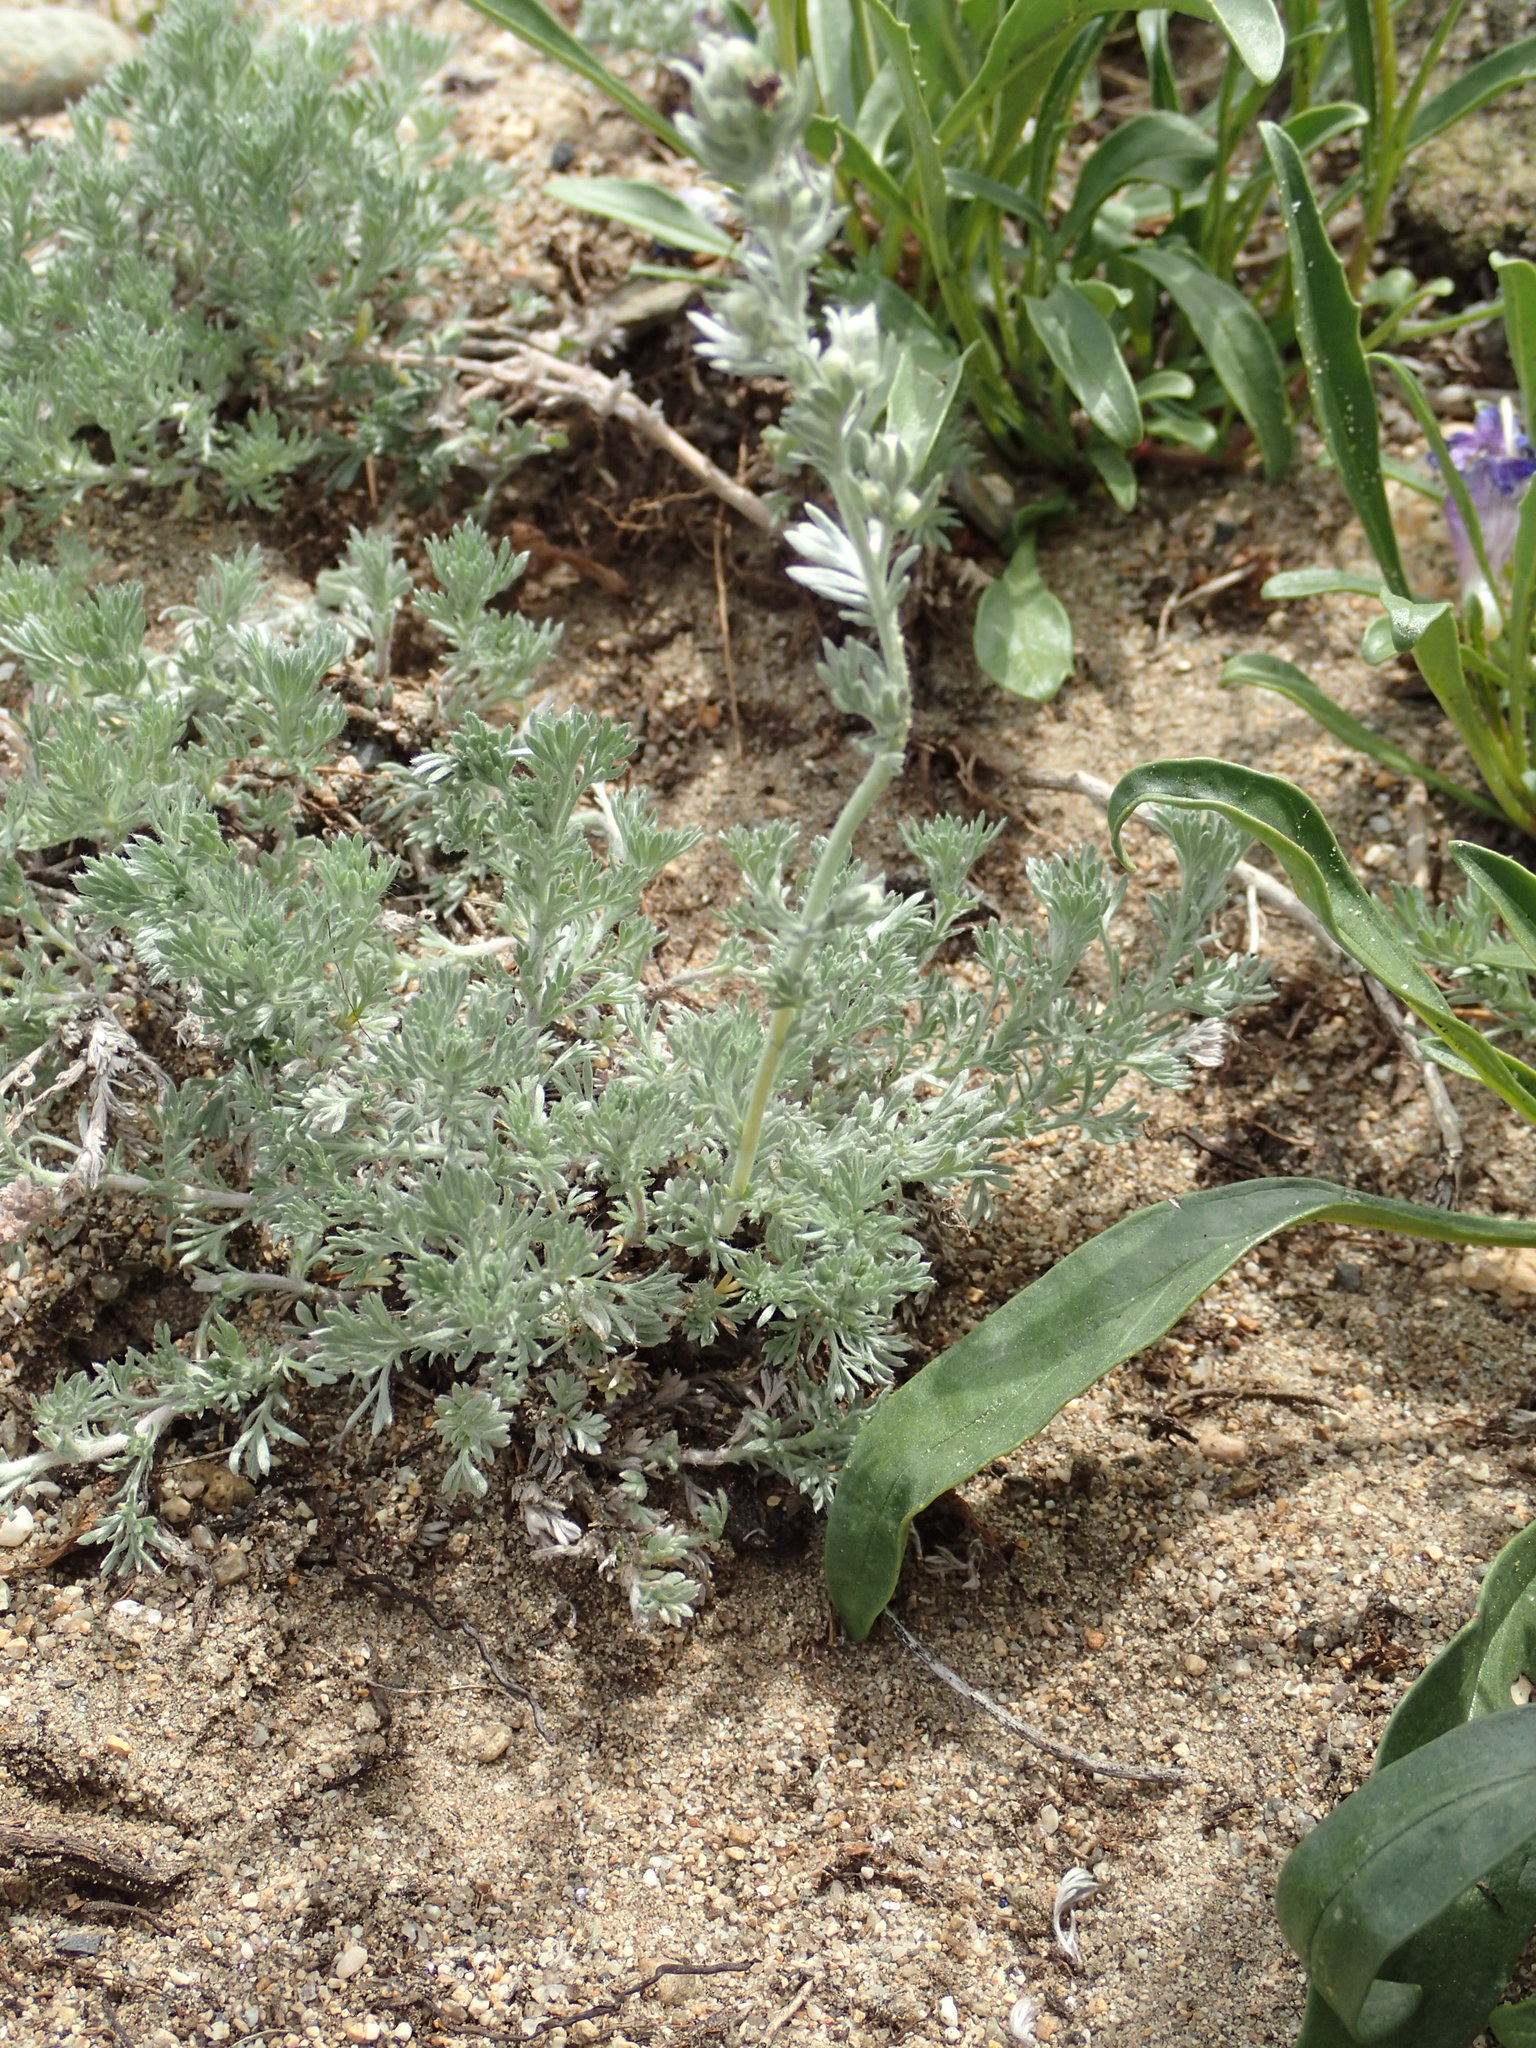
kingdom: Plantae
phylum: Tracheophyta
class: Magnoliopsida
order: Asterales
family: Asteraceae
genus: Artemisia
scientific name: Artemisia frigida
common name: Prairie sagewort
